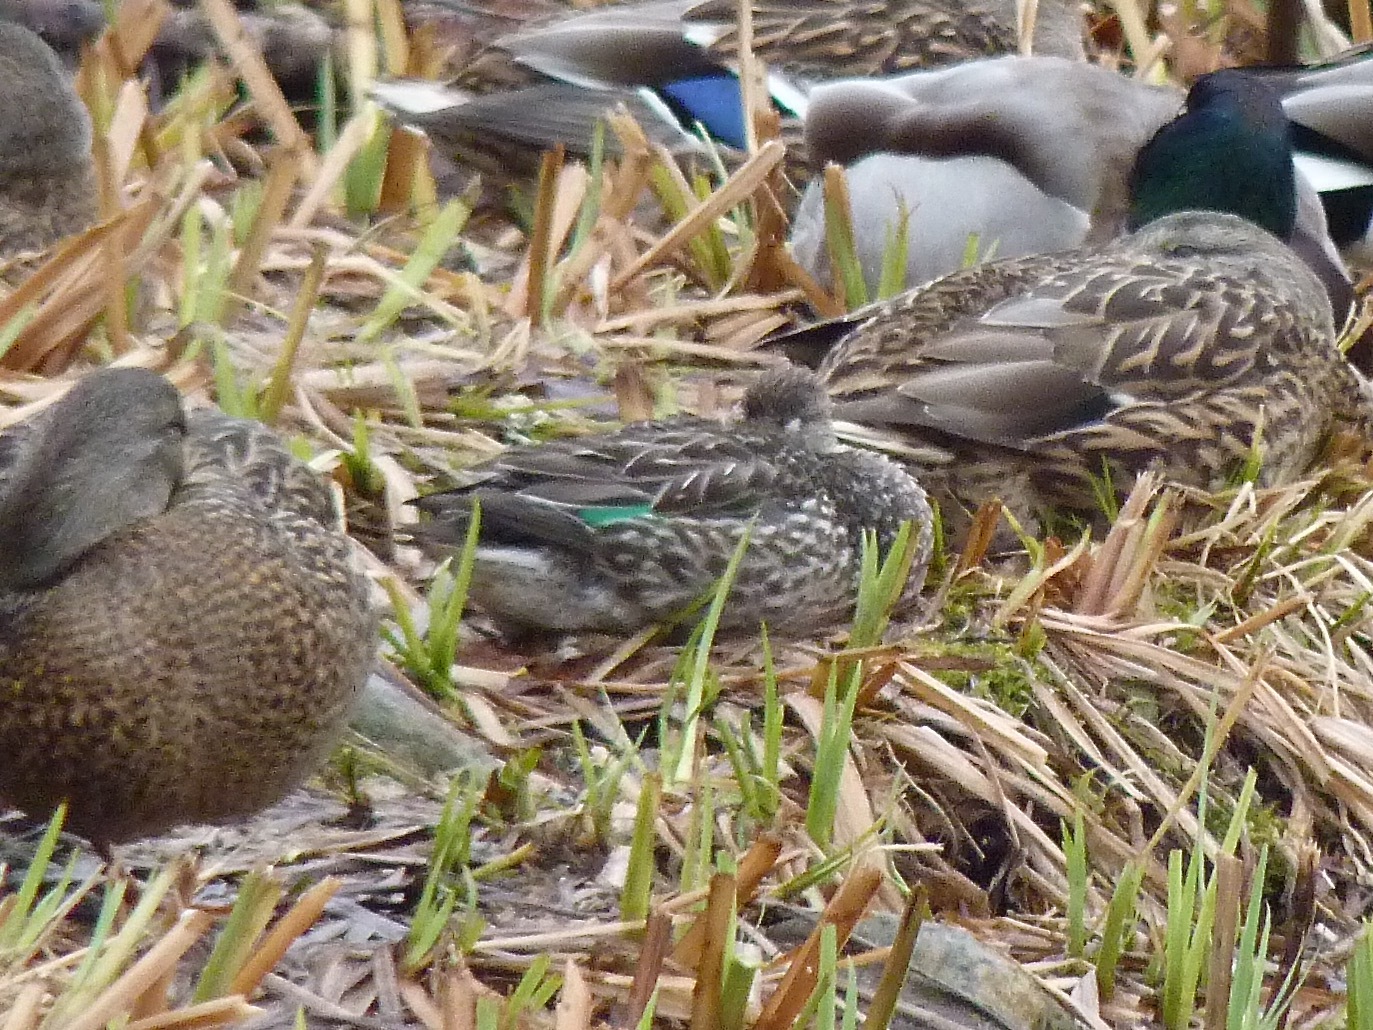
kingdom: Animalia
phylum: Chordata
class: Aves
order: Anseriformes
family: Anatidae
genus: Anas
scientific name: Anas crecca
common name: Eurasian teal
